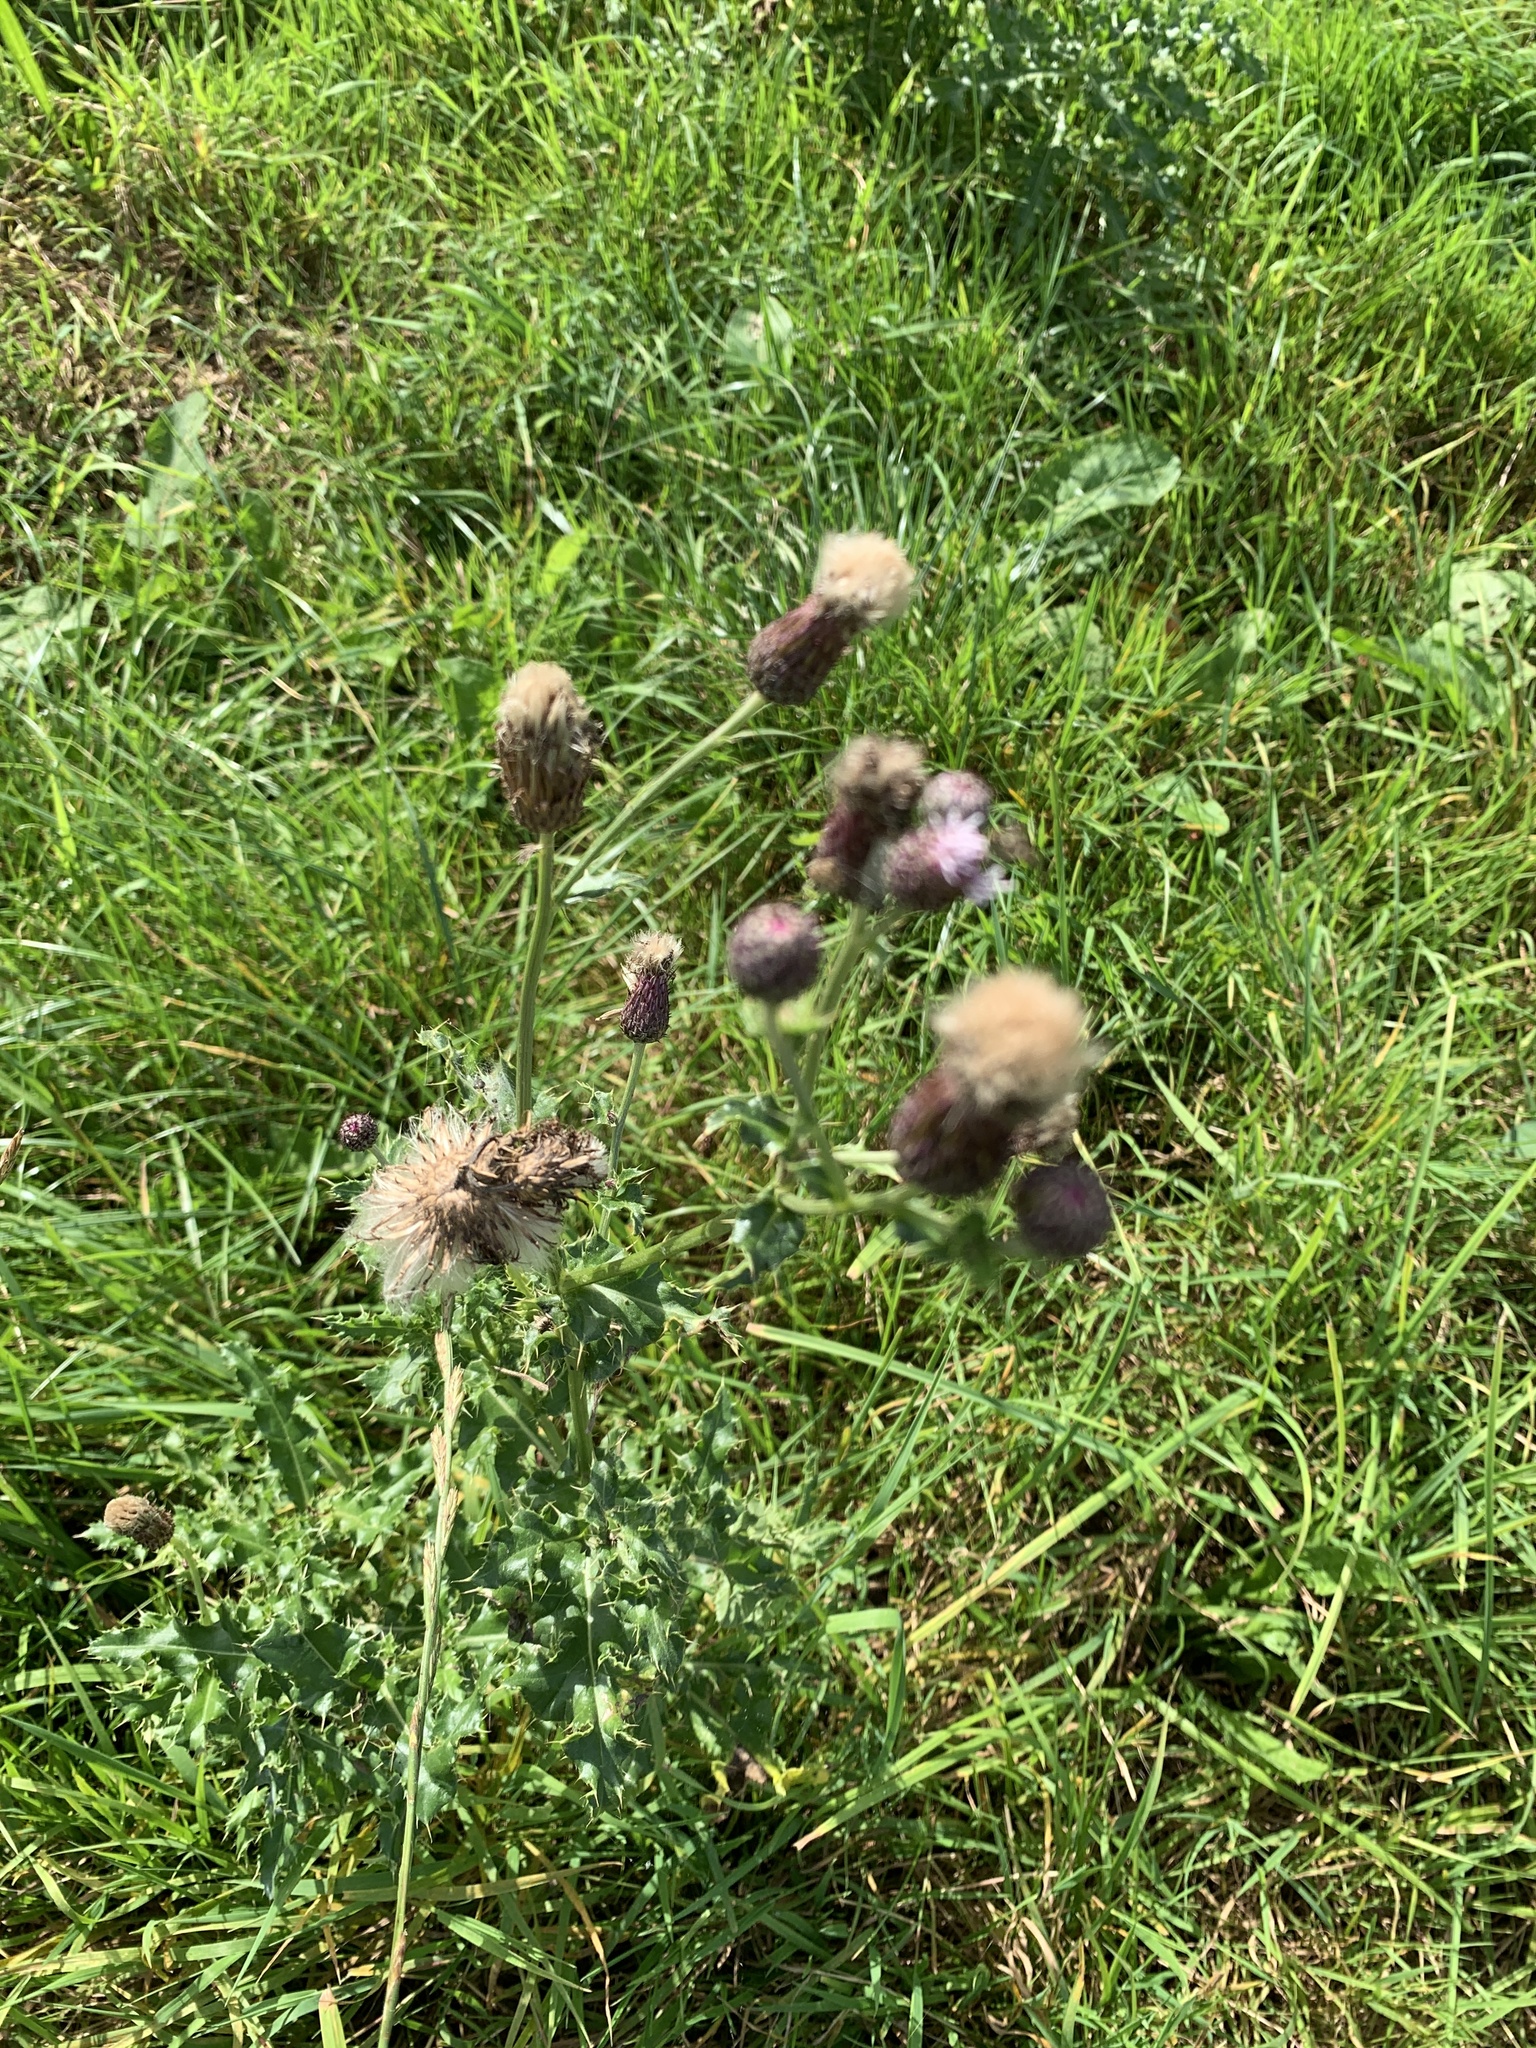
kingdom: Plantae
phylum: Tracheophyta
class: Magnoliopsida
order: Asterales
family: Asteraceae
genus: Cirsium
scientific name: Cirsium arvense
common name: Creeping thistle
